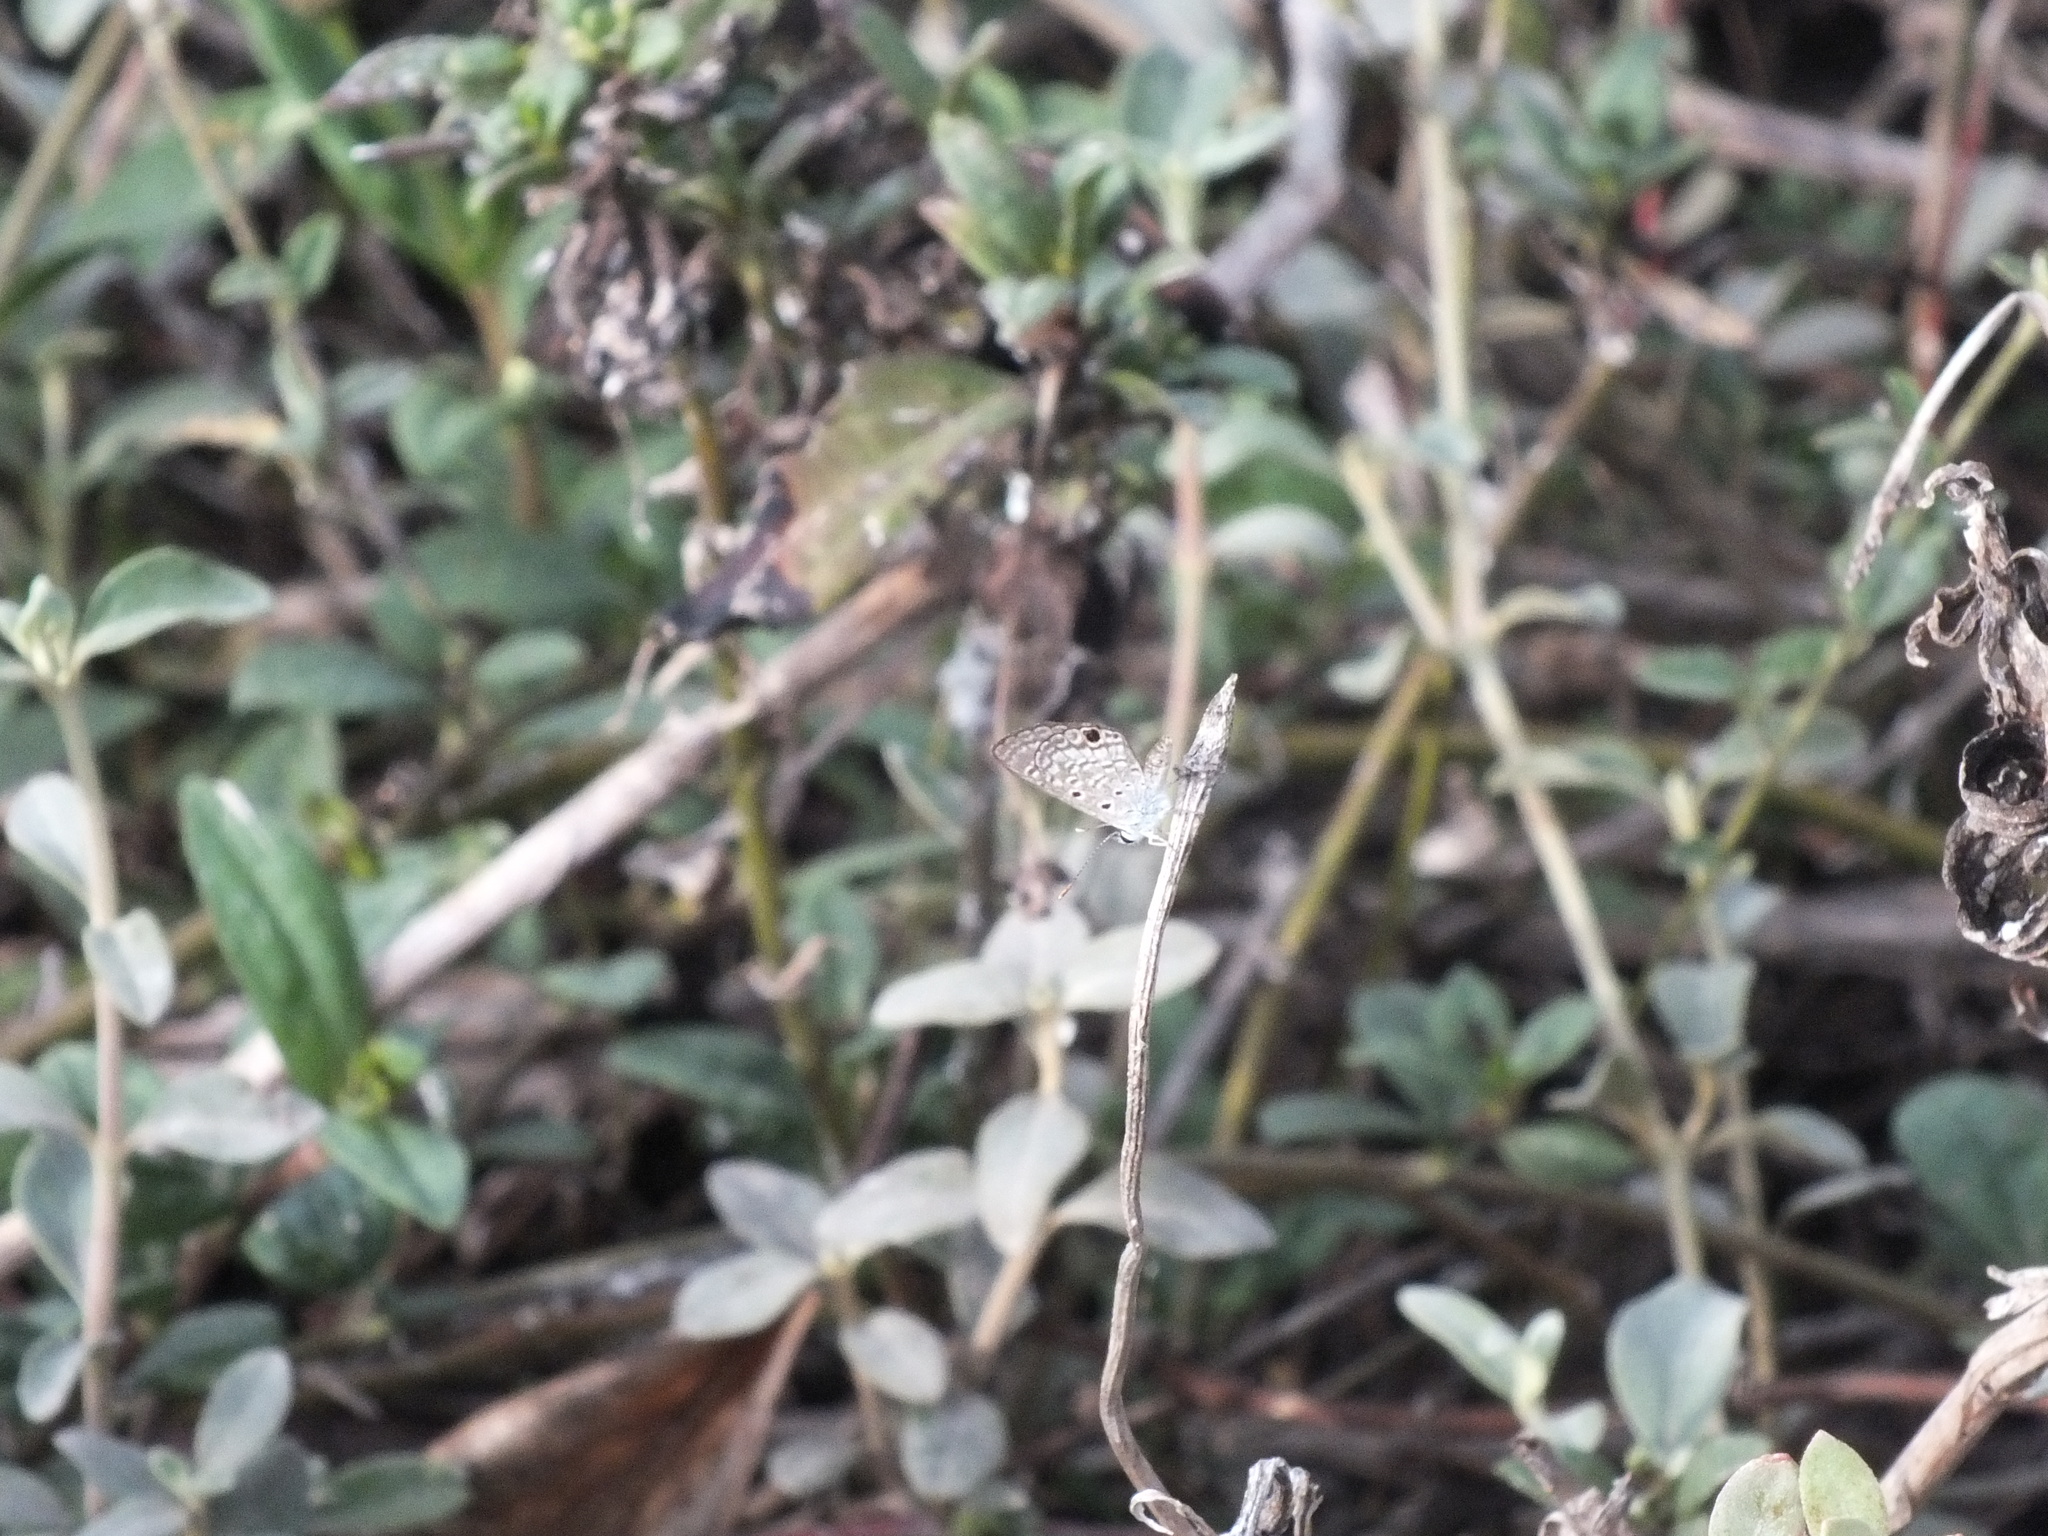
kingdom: Animalia
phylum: Arthropoda
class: Insecta
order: Lepidoptera
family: Lycaenidae
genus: Hemiargus
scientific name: Hemiargus ceraunus
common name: Ceraunus blue
